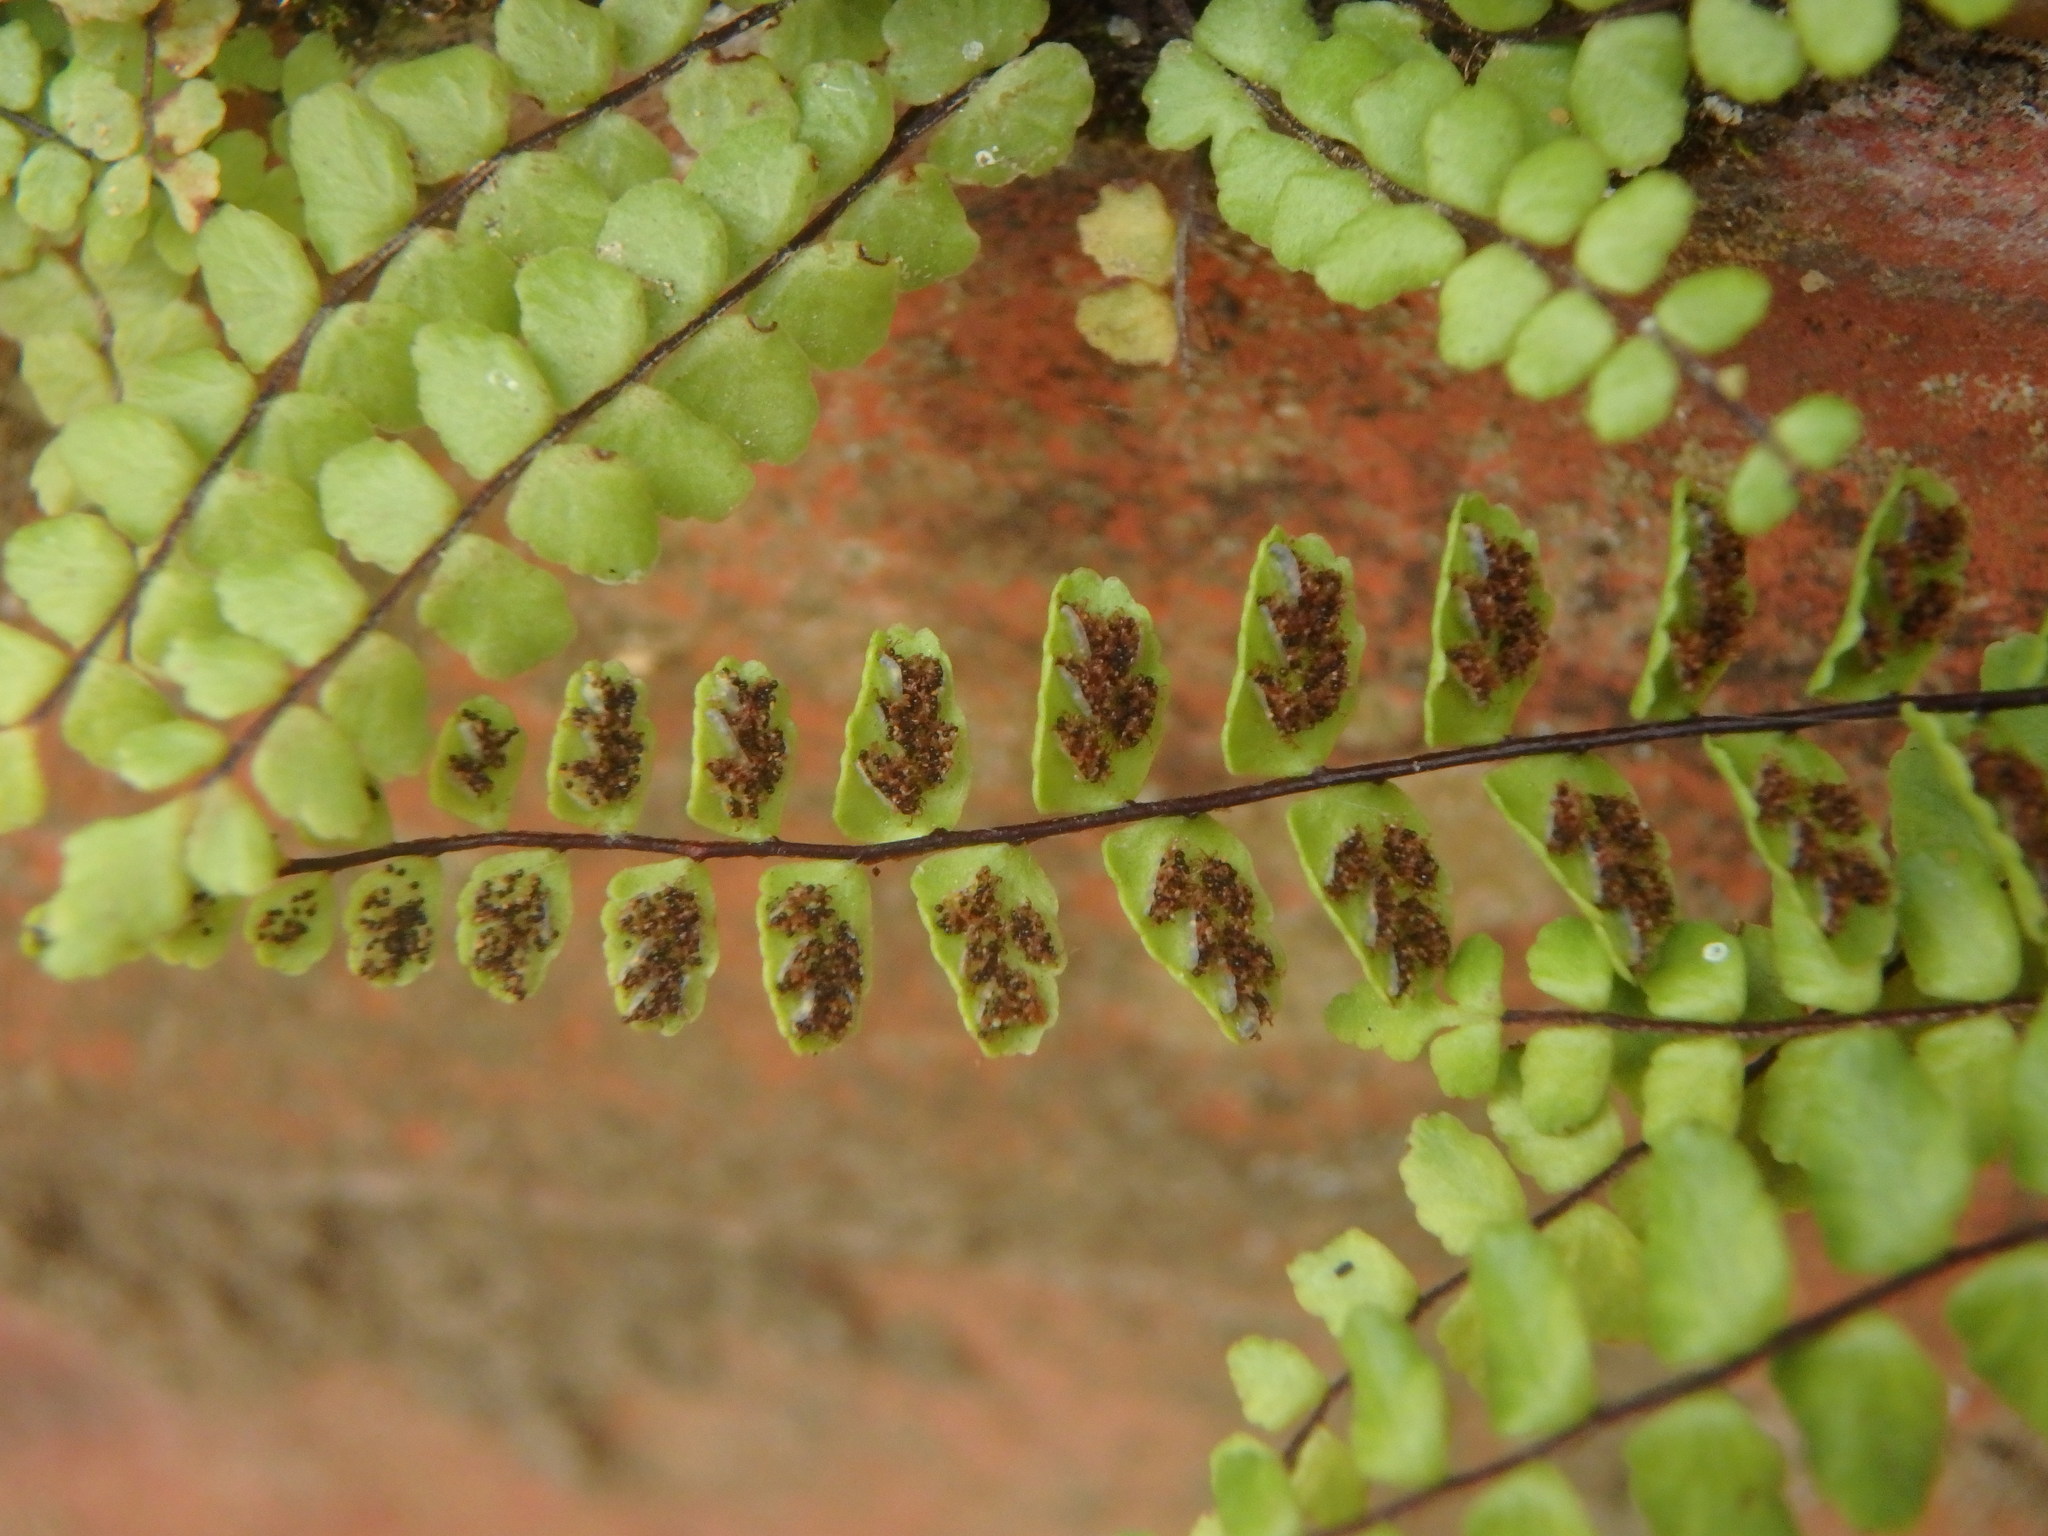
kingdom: Plantae
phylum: Tracheophyta
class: Polypodiopsida
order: Polypodiales
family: Aspleniaceae
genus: Asplenium
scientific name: Asplenium trichomanes
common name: Maidenhair spleenwort
